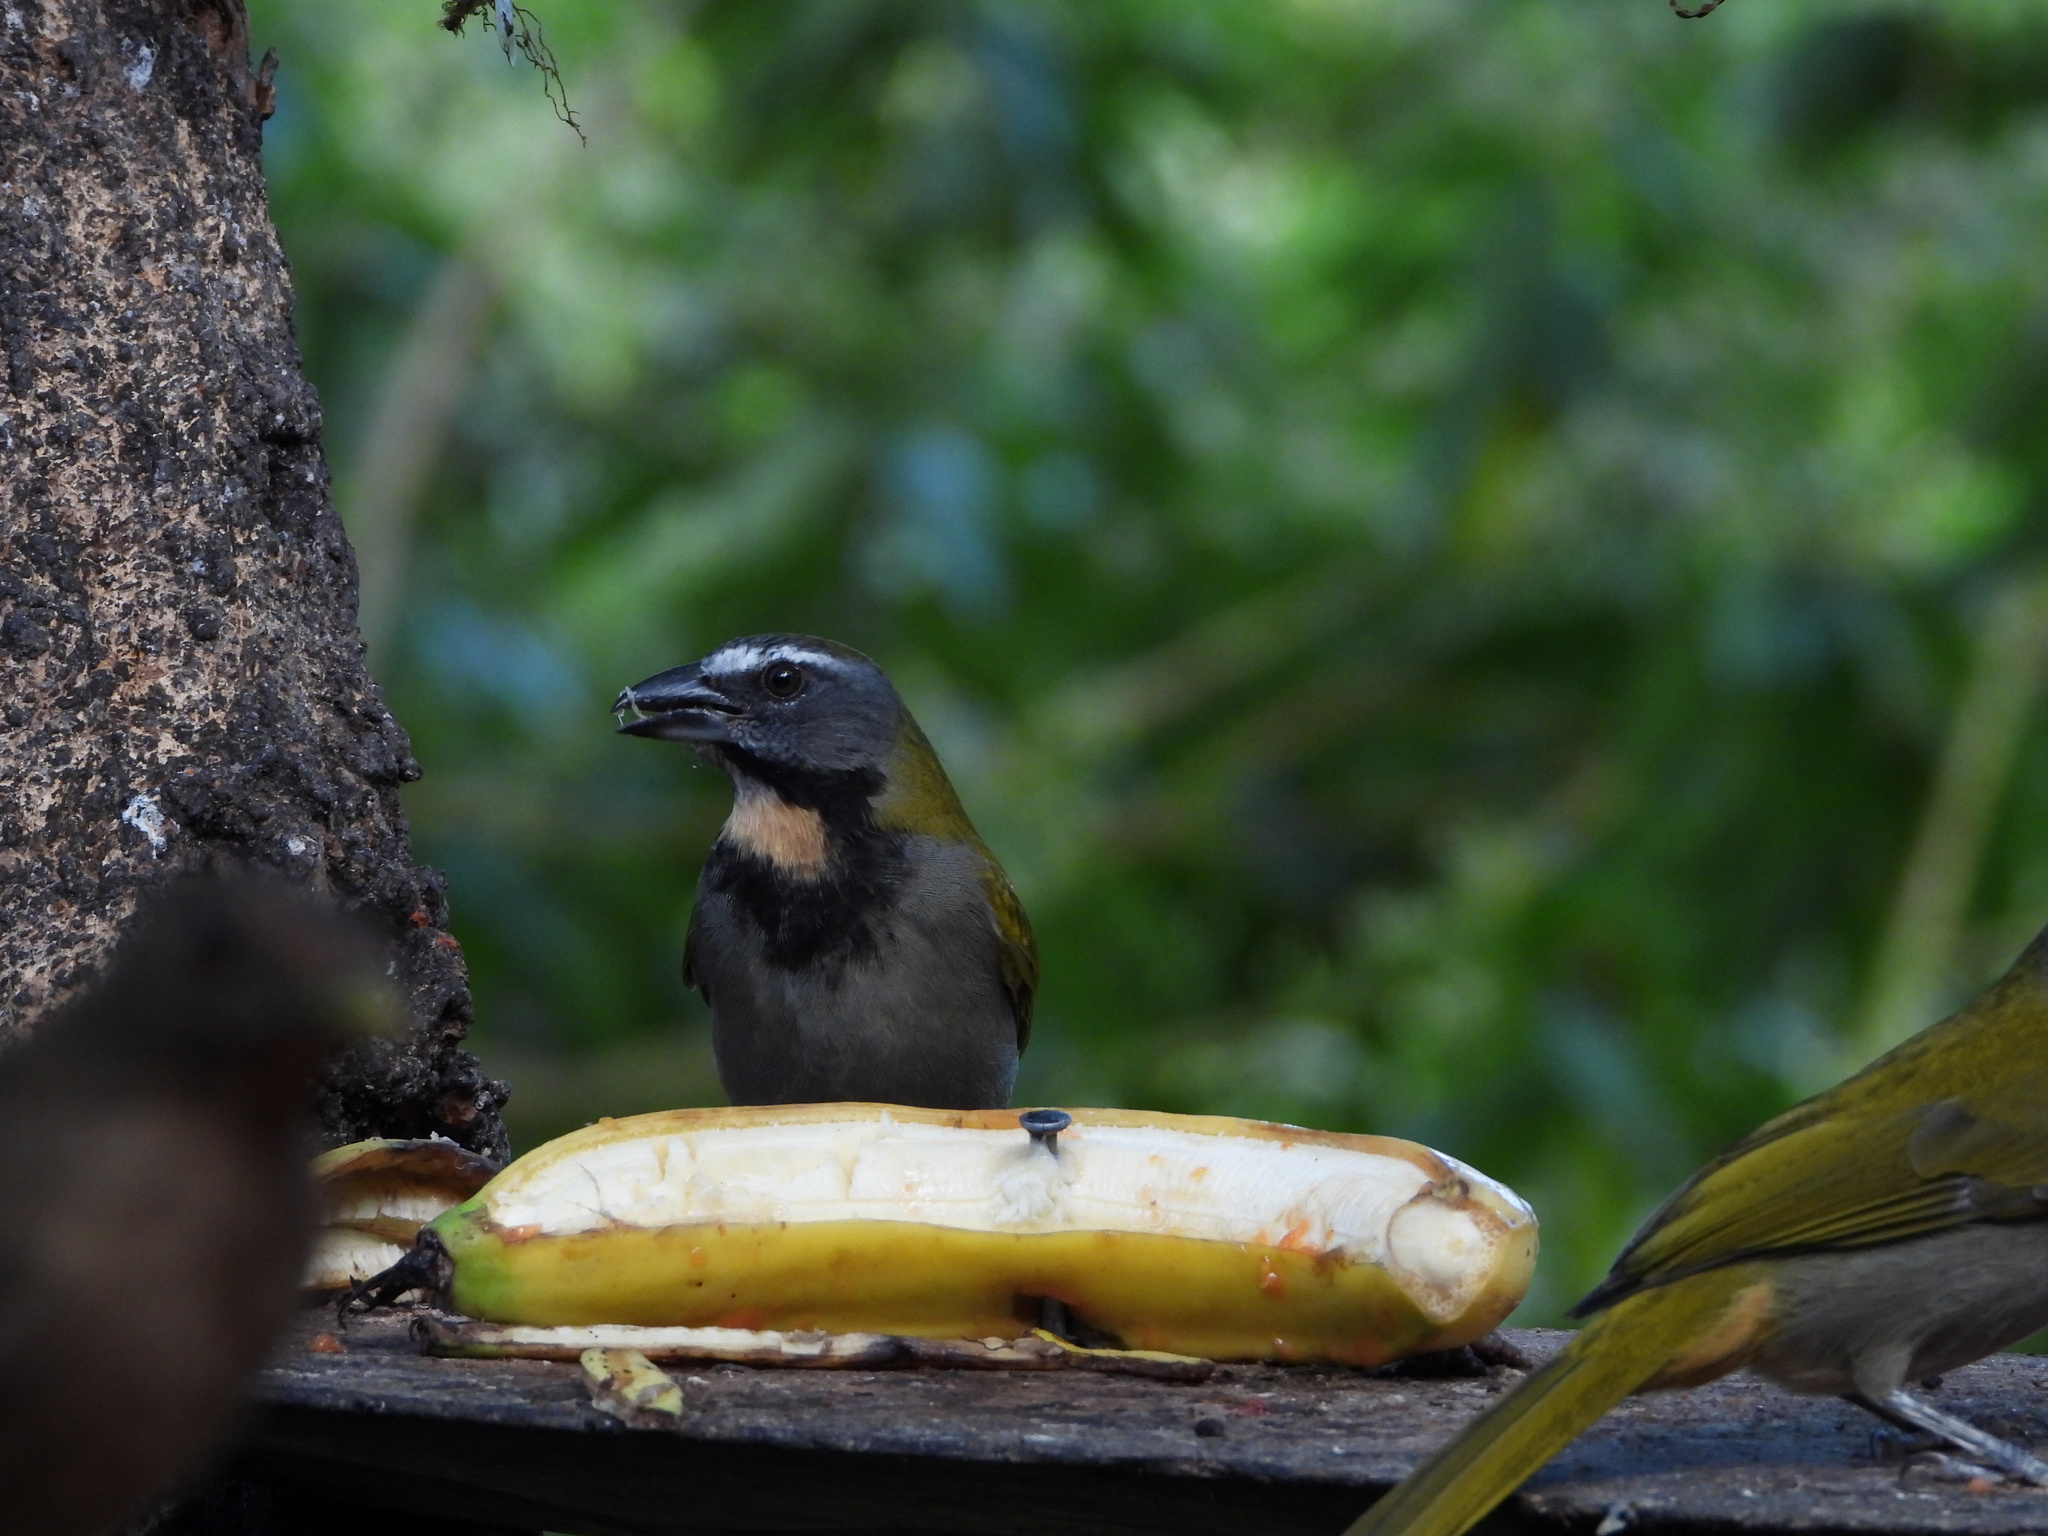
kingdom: Animalia
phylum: Chordata
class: Aves
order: Passeriformes
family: Thraupidae
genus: Saltator
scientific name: Saltator maximus
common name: Buff-throated saltator
